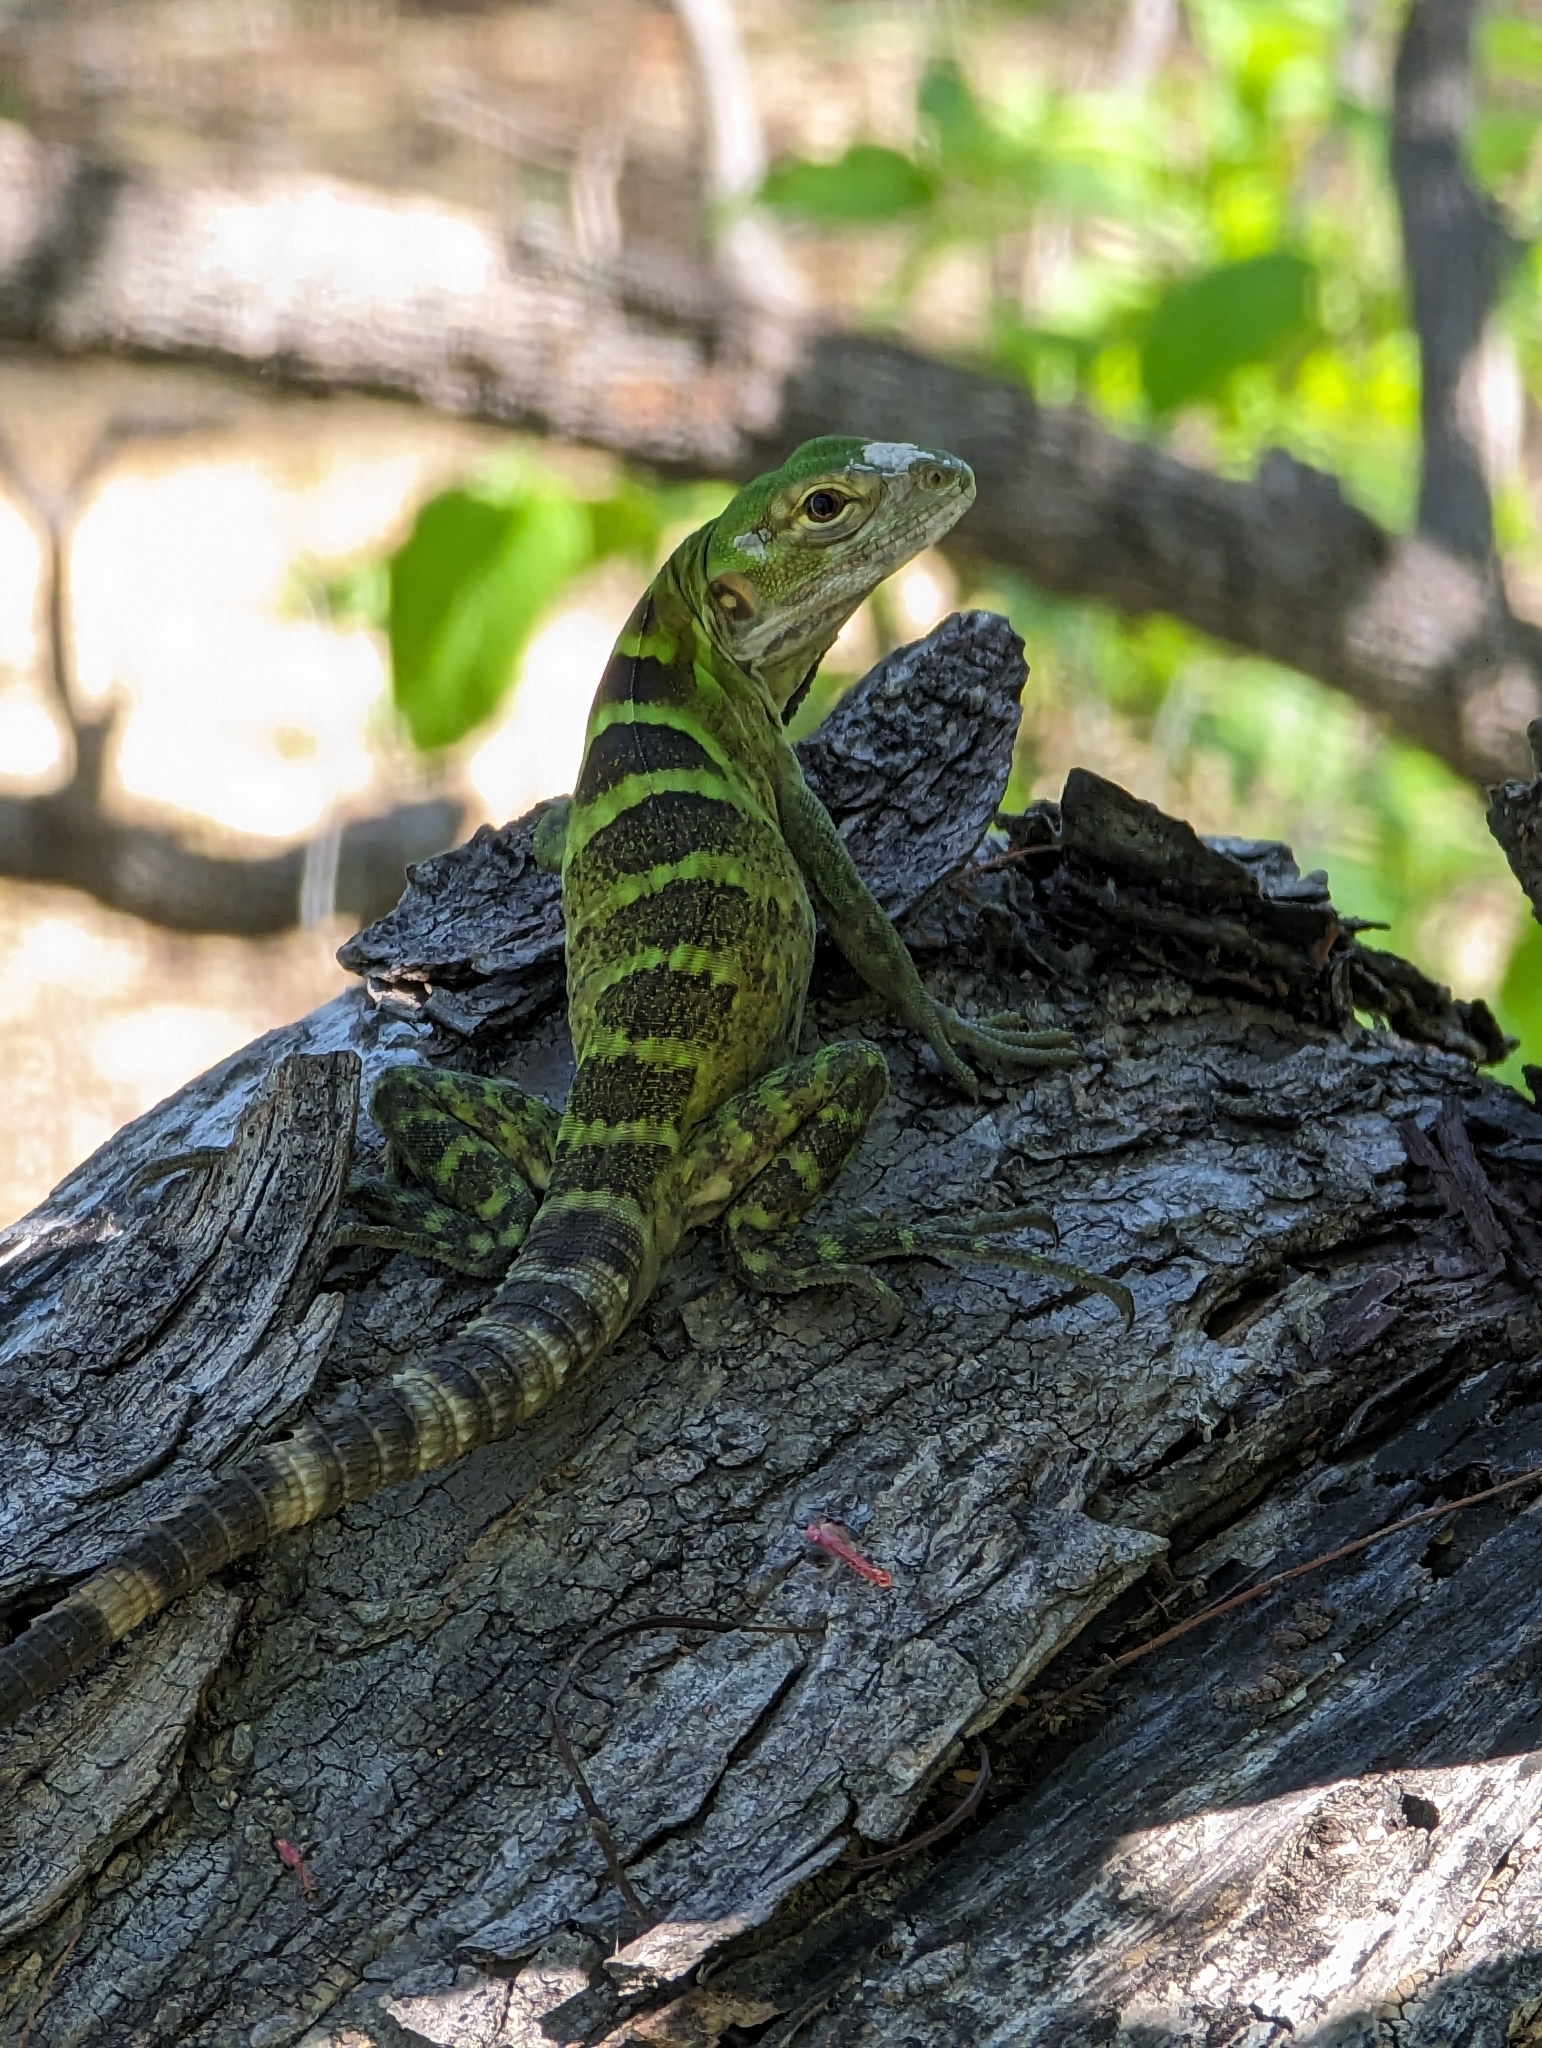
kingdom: Animalia
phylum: Chordata
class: Squamata
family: Iguanidae
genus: Ctenosaura
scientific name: Ctenosaura hemilopha
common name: Baja california spiny- tailed iguana
